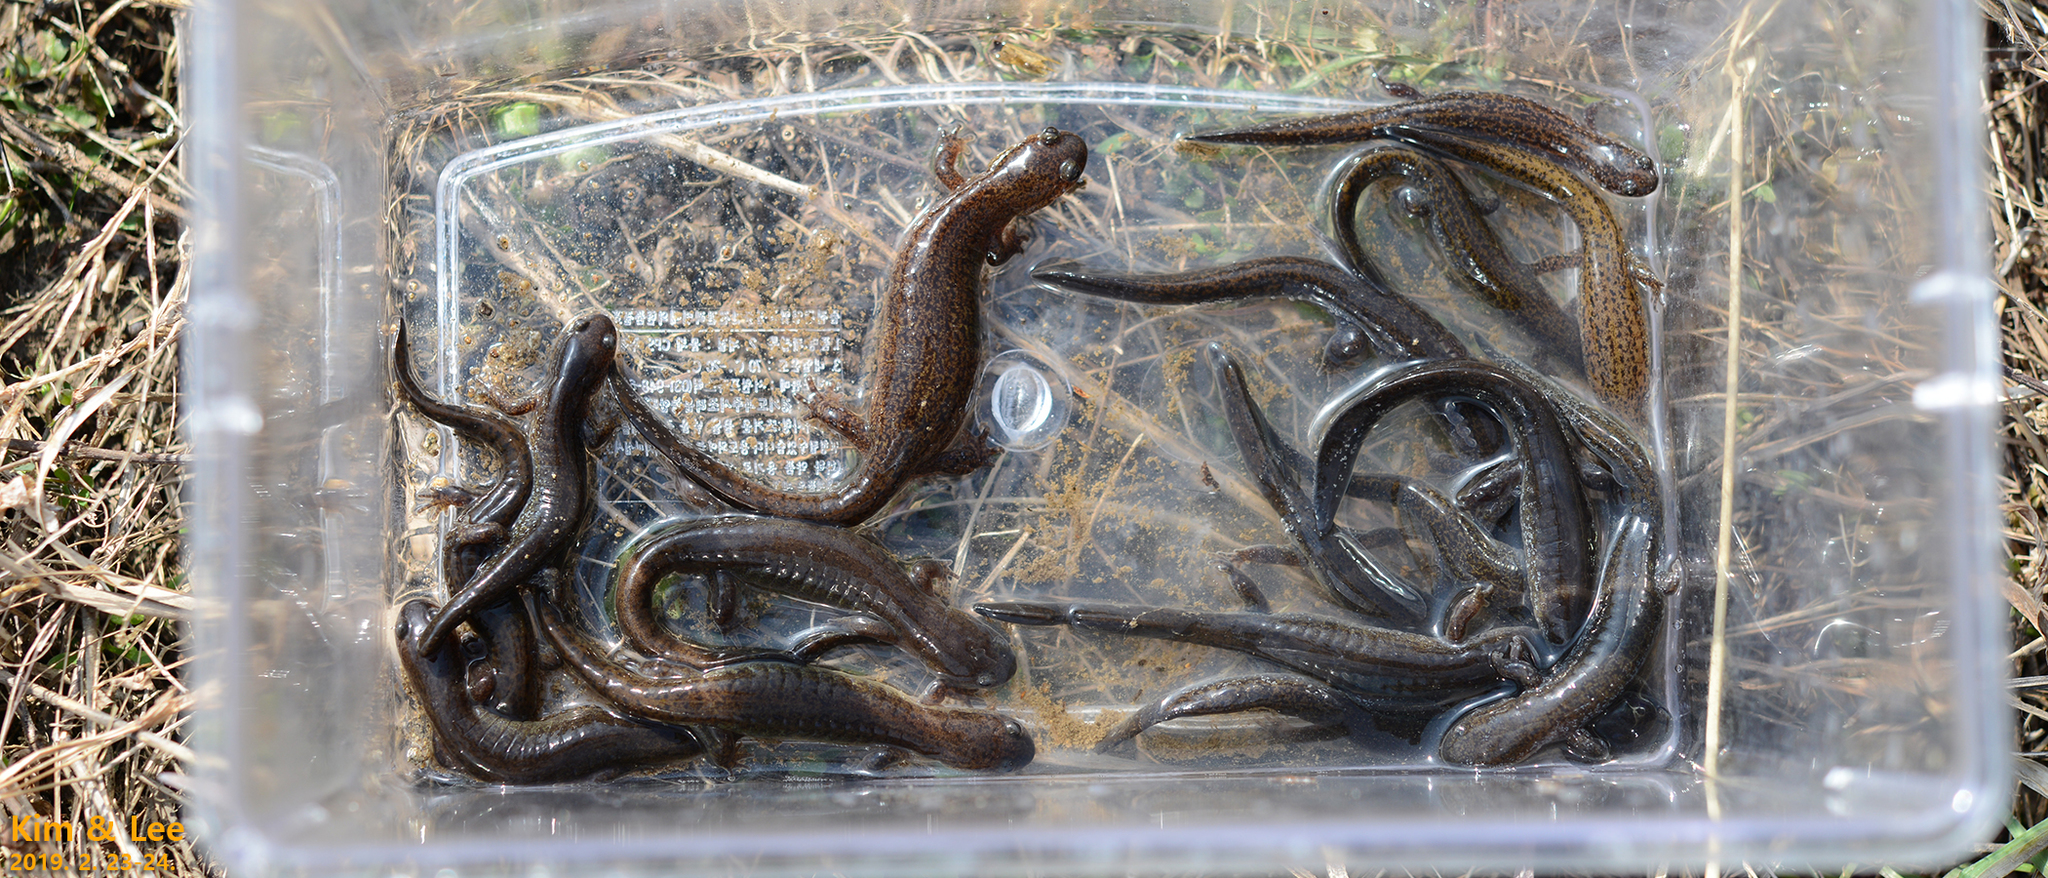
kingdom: Animalia
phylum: Chordata
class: Amphibia
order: Caudata
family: Hynobiidae
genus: Hynobius
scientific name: Hynobius unisacculus
